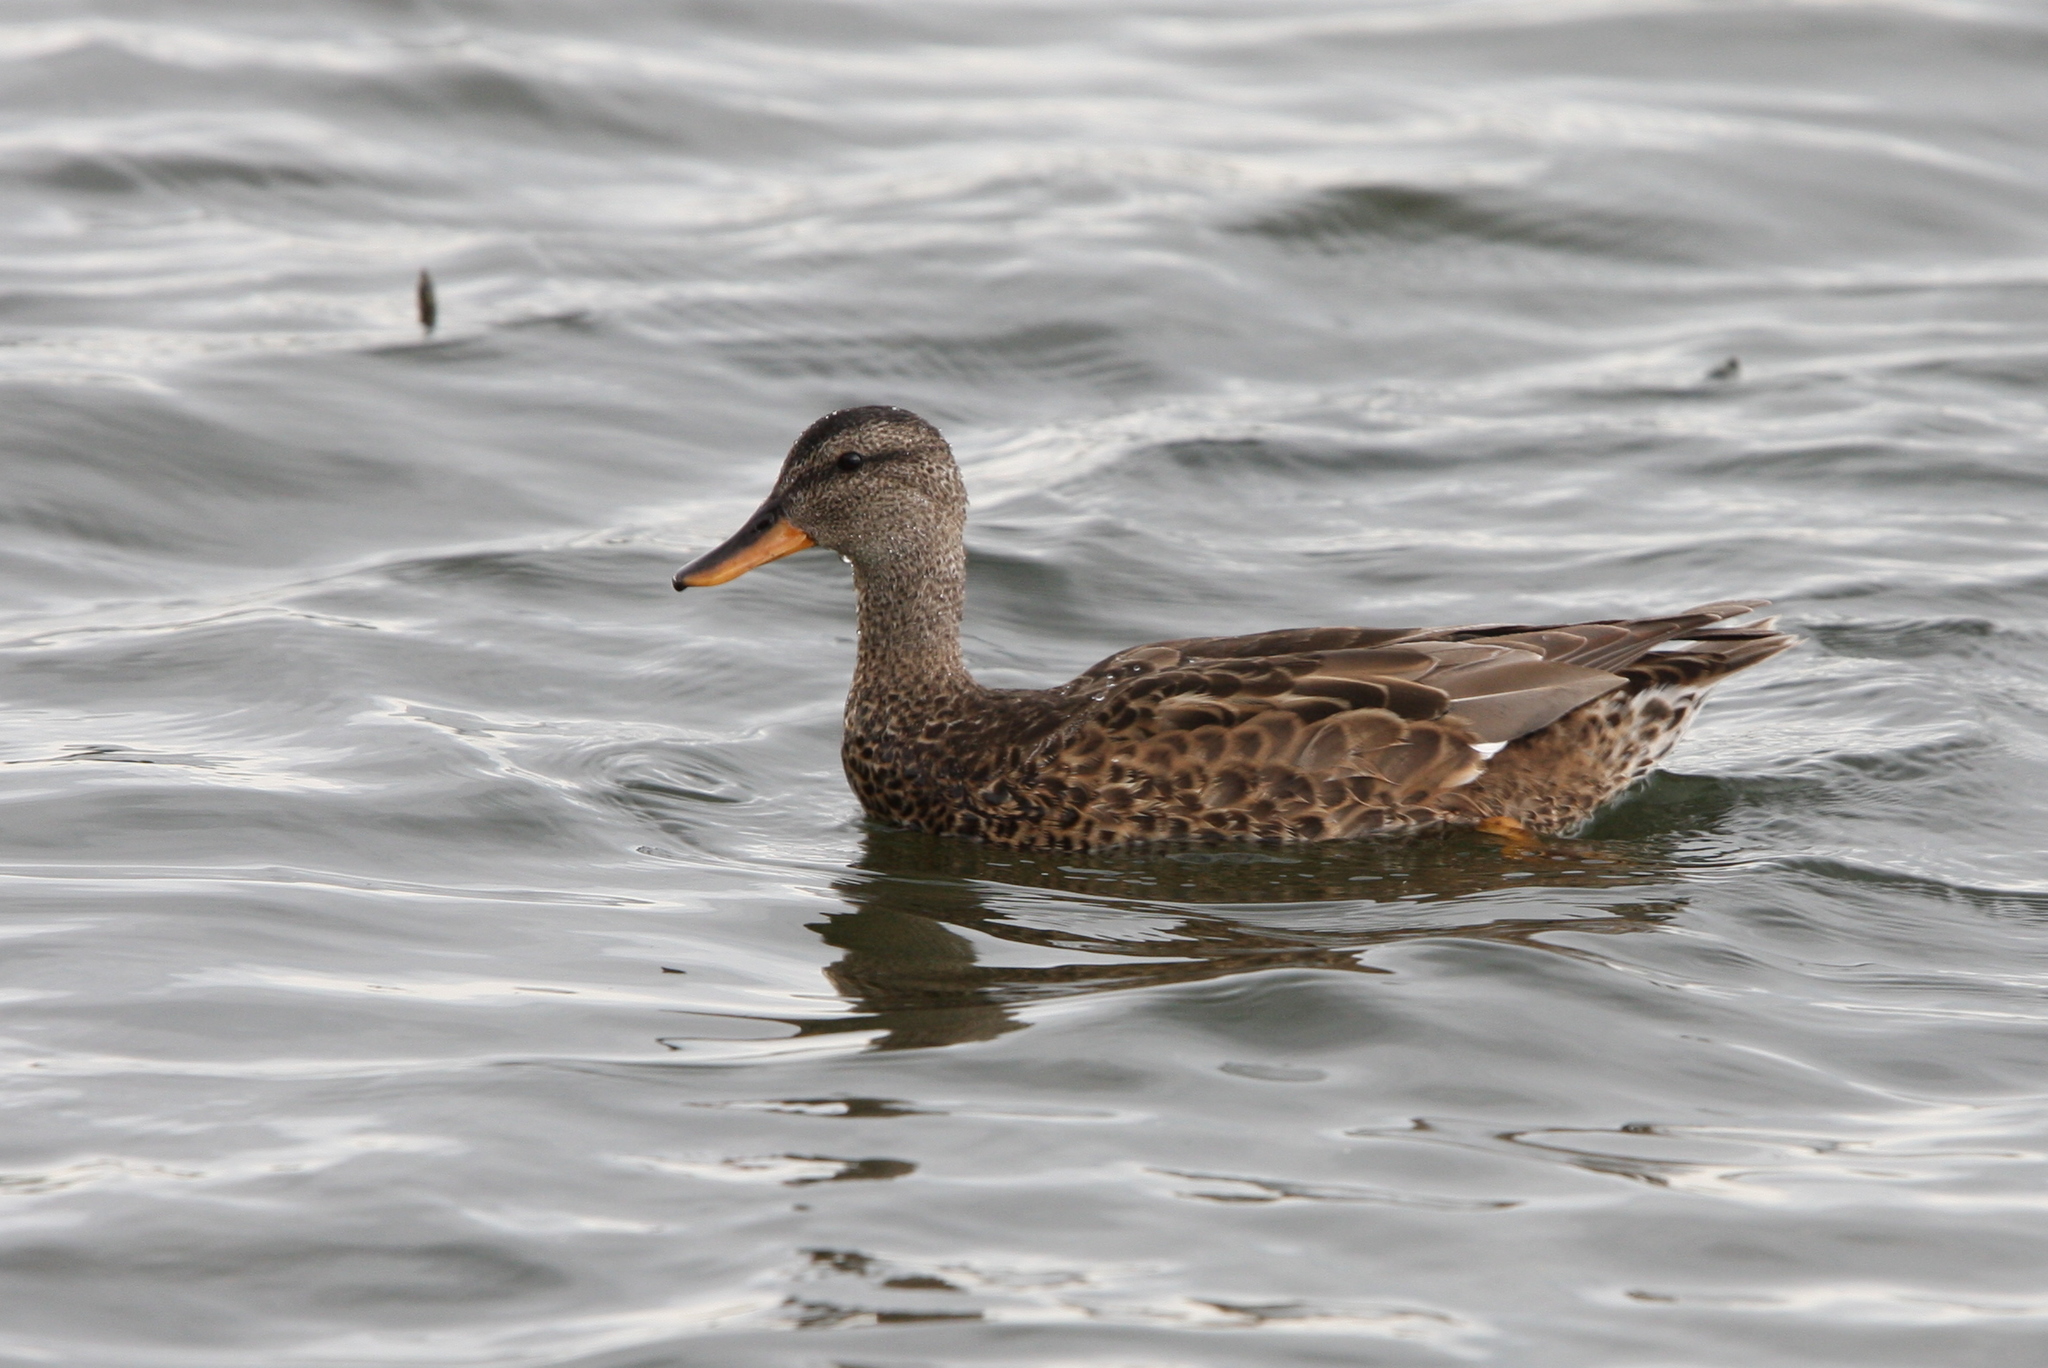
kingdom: Animalia
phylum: Chordata
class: Aves
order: Anseriformes
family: Anatidae
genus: Mareca
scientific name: Mareca strepera
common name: Gadwall
